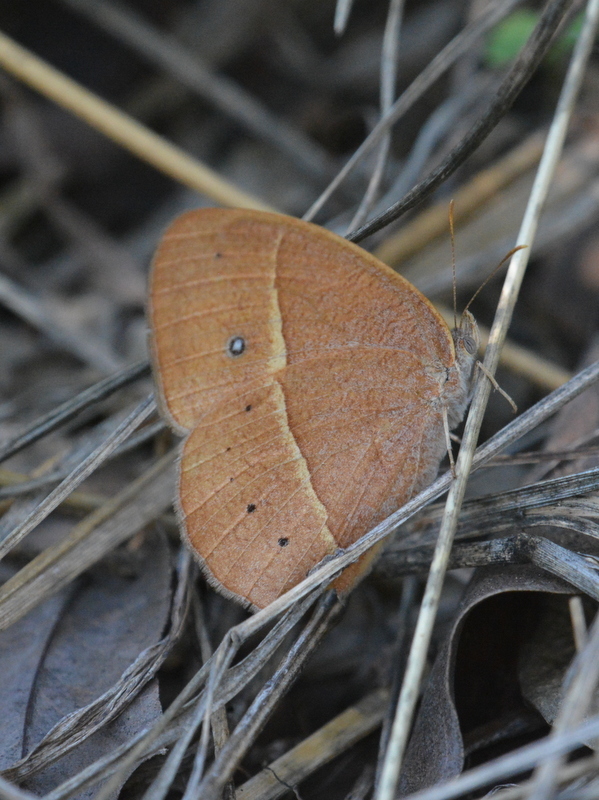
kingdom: Animalia
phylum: Arthropoda
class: Insecta
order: Lepidoptera
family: Nymphalidae
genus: Brakefieldia
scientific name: Brakefieldia simonsii
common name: Pale patroller
